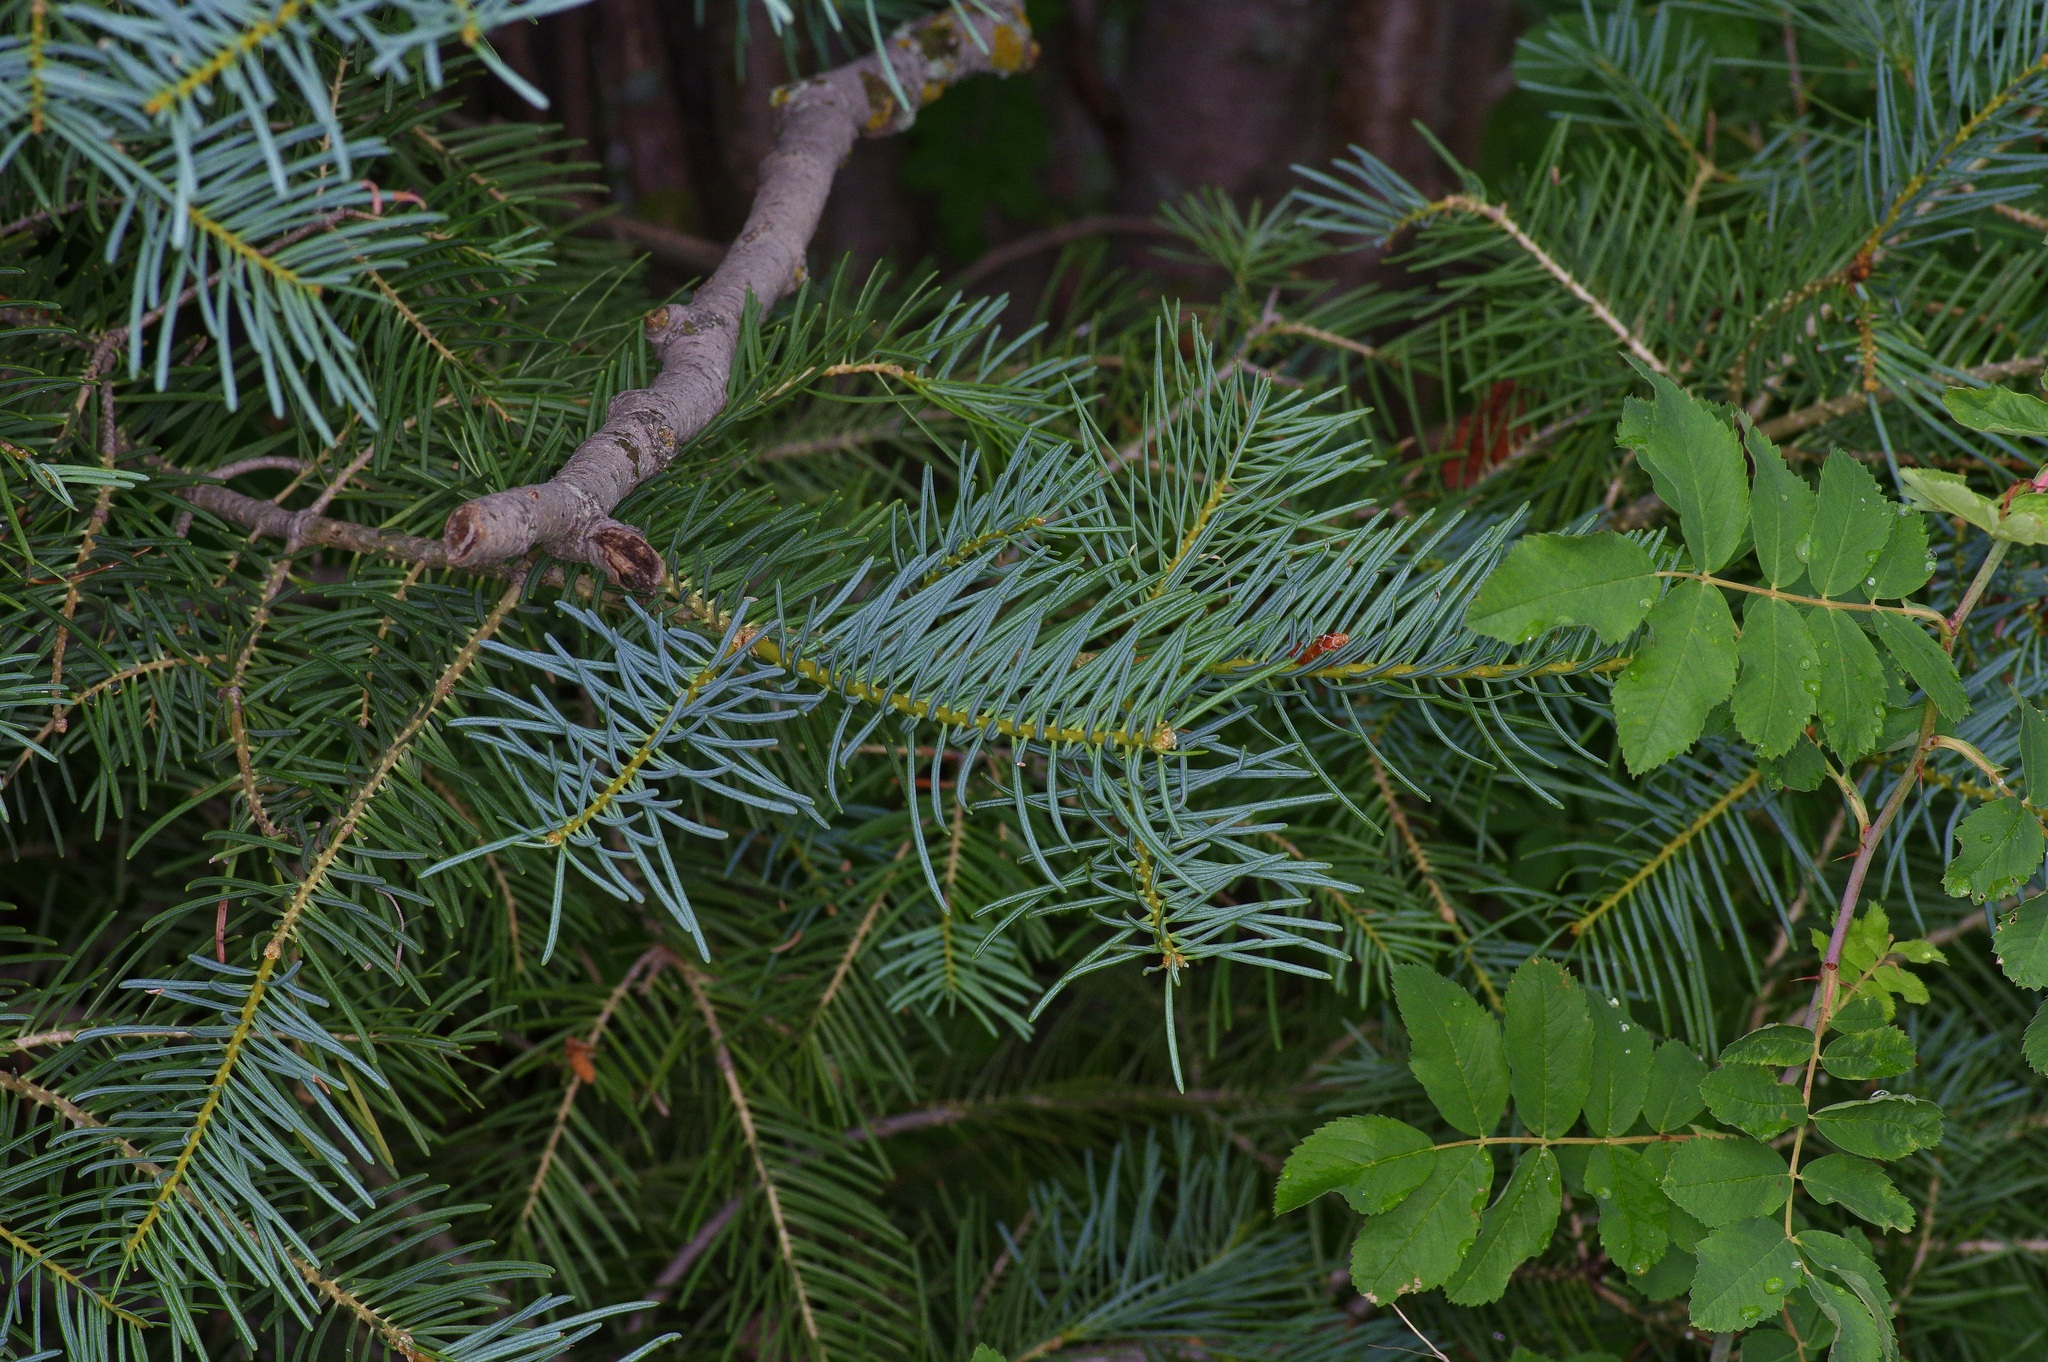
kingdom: Plantae
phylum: Tracheophyta
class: Pinopsida
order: Pinales
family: Pinaceae
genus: Abies
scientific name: Abies concolor
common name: Colorado fir
